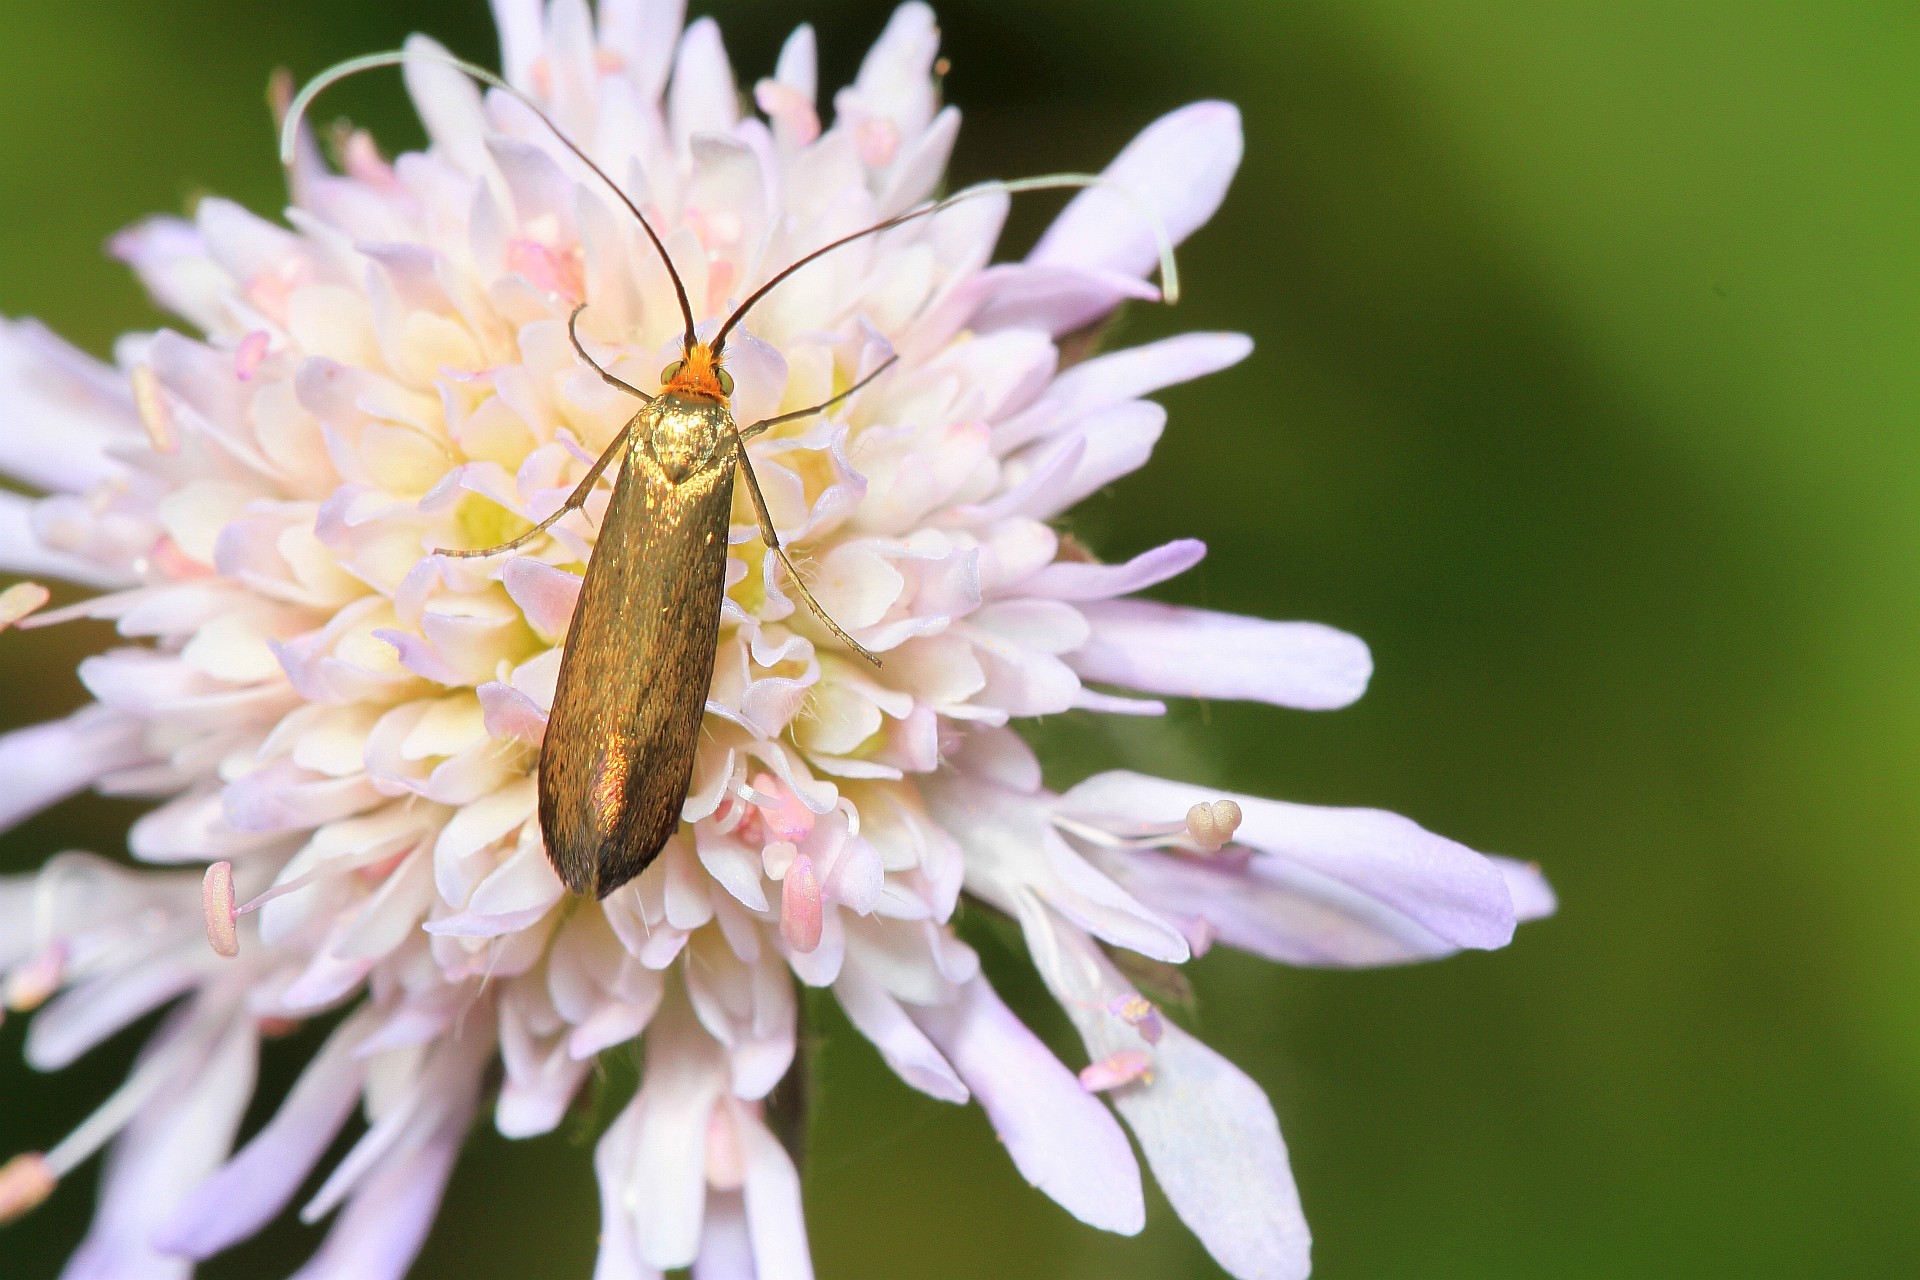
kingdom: Animalia
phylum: Arthropoda
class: Insecta
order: Lepidoptera
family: Adelidae
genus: Nemophora
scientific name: Nemophora metallica
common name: Brassy long-horn
